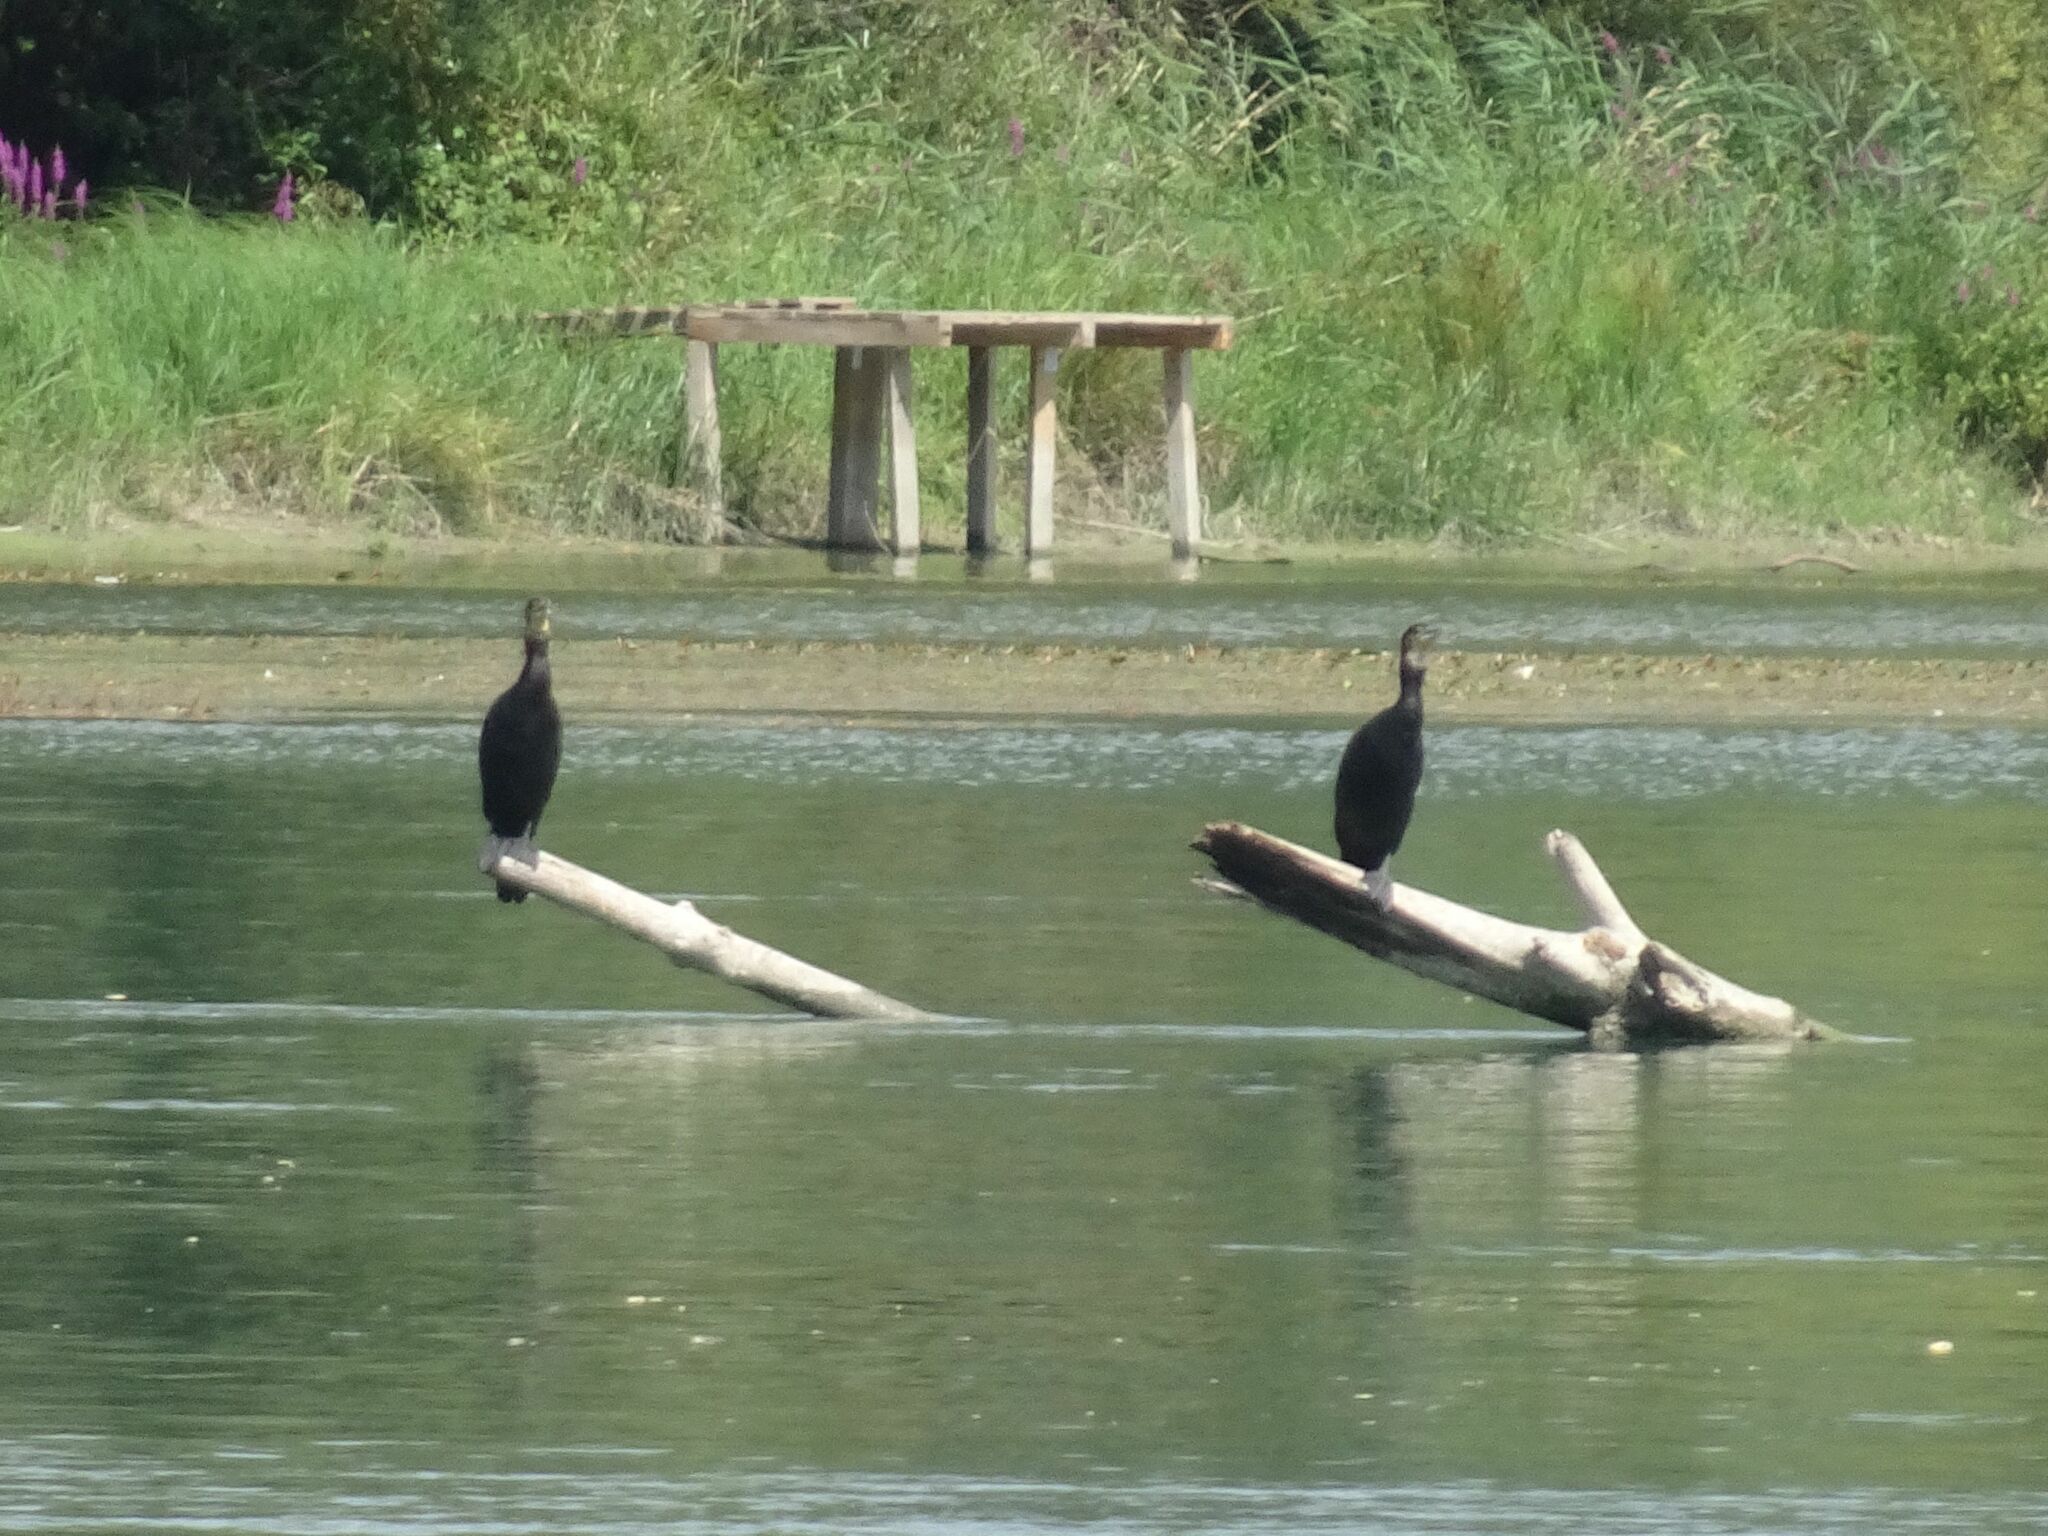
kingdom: Animalia
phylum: Chordata
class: Aves
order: Suliformes
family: Phalacrocoracidae
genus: Phalacrocorax
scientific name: Phalacrocorax carbo
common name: Great cormorant
